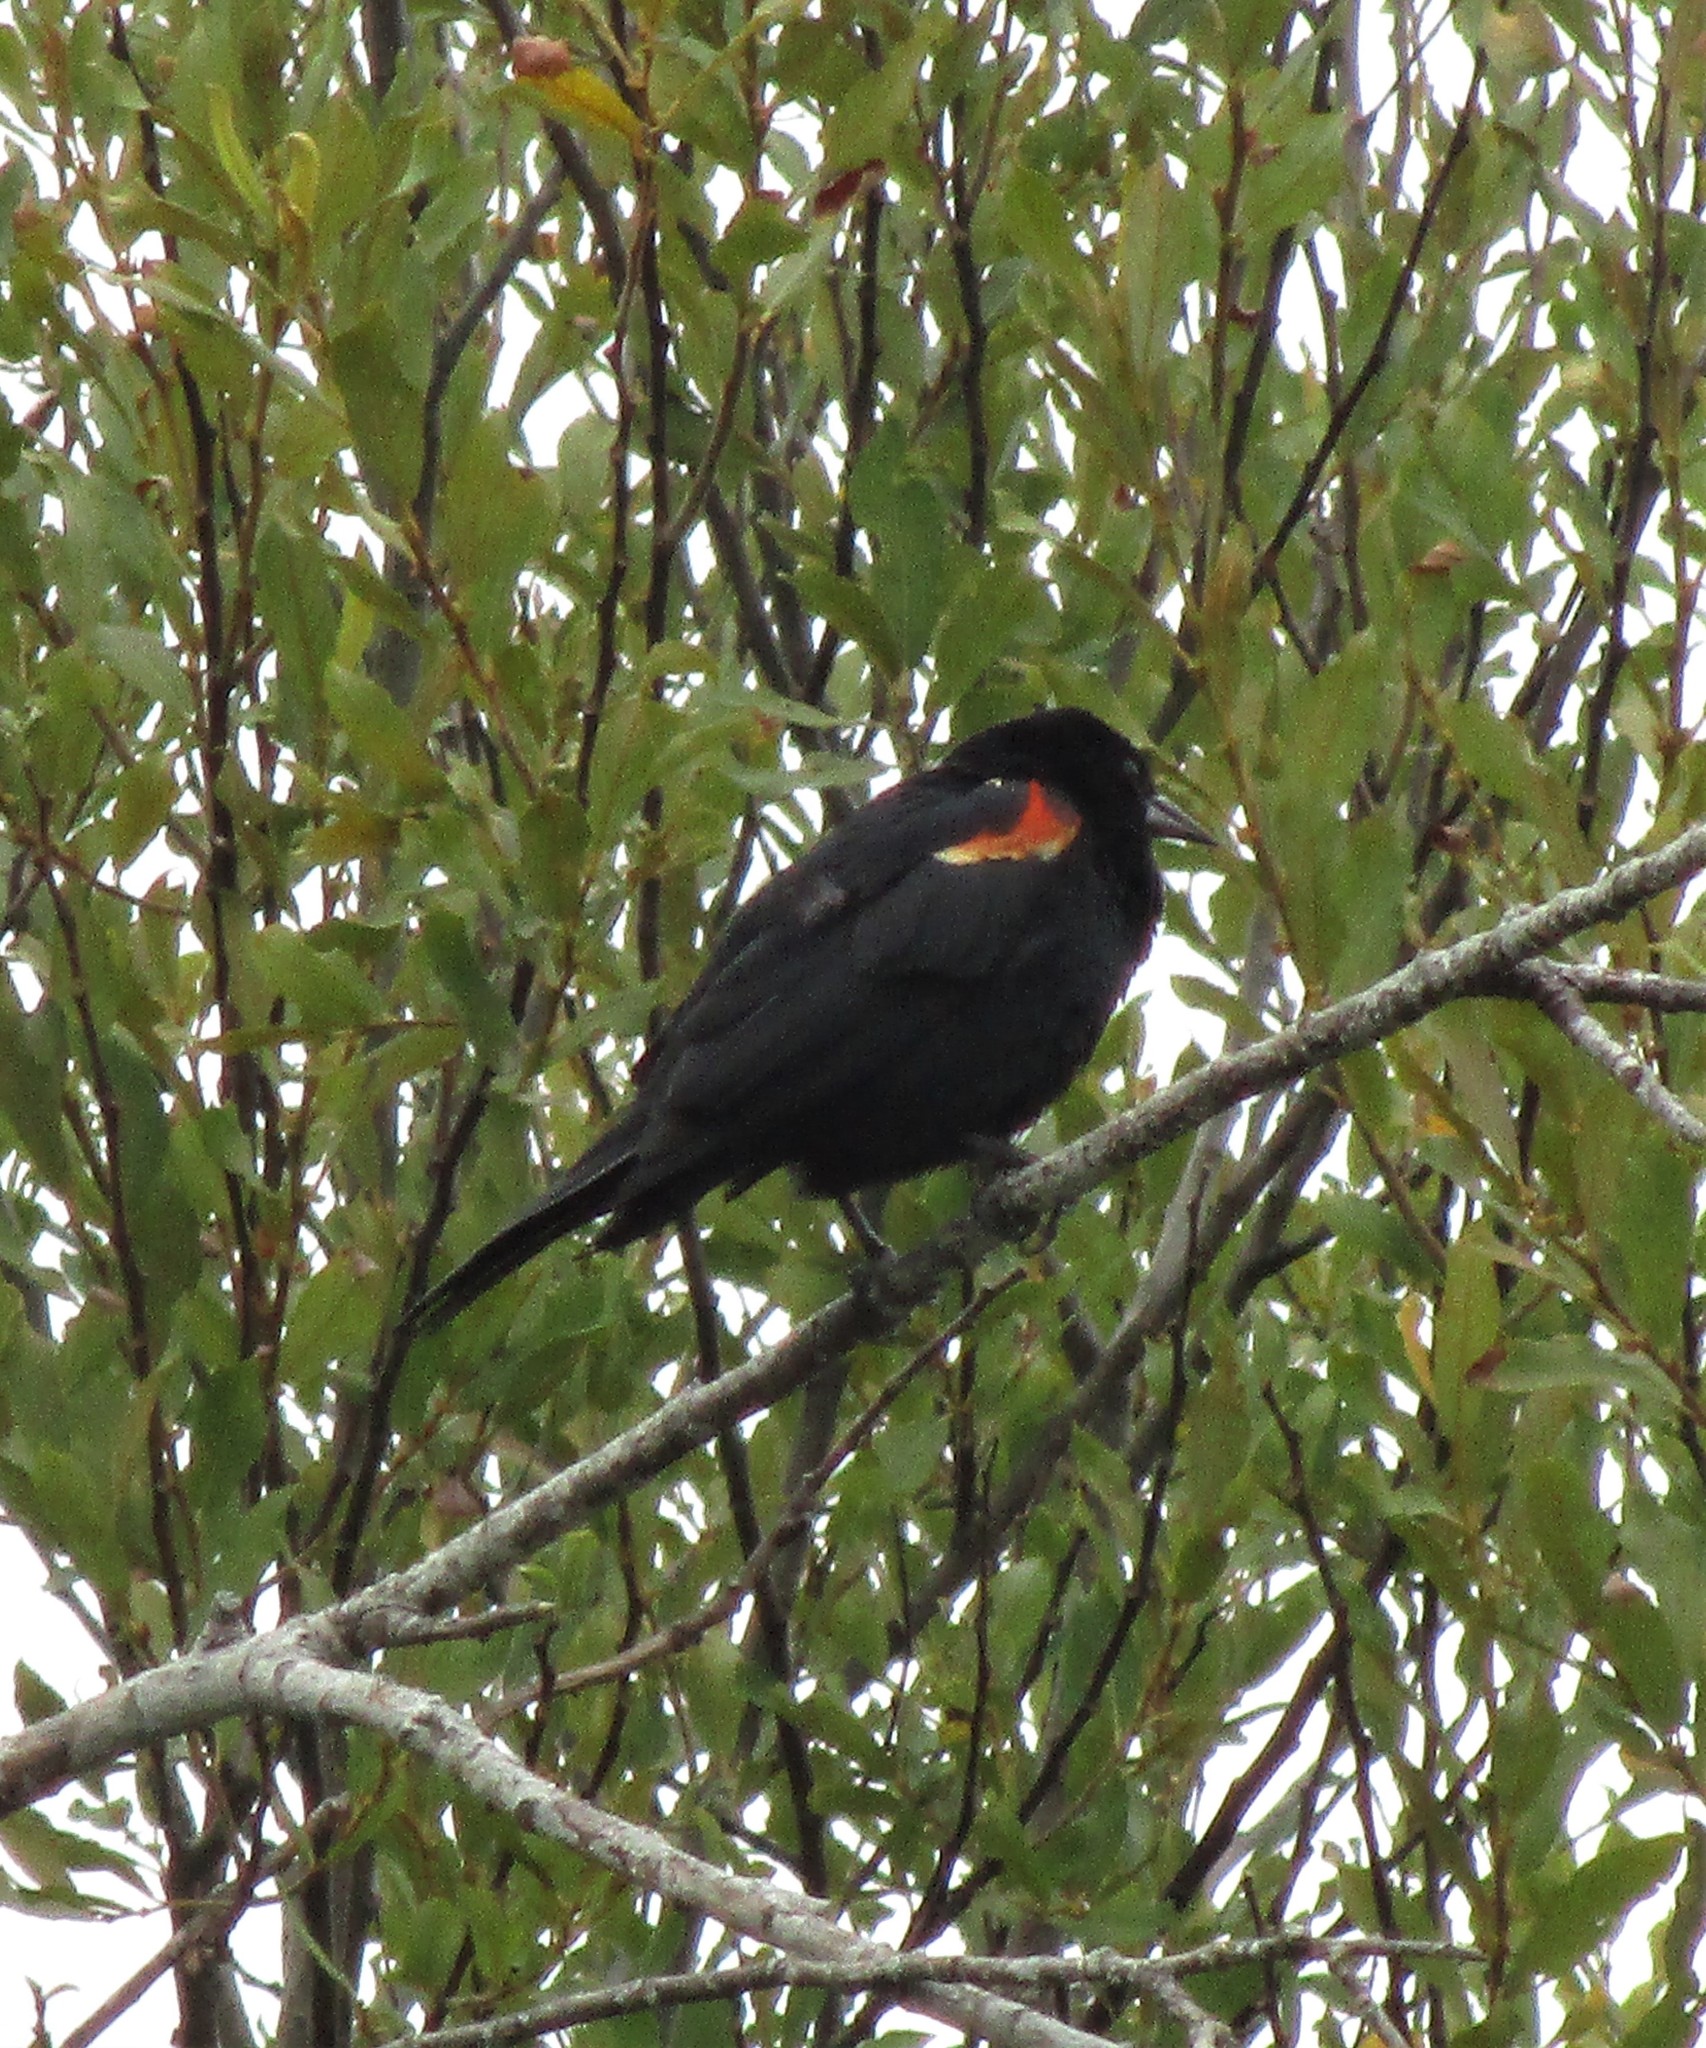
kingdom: Animalia
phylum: Chordata
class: Aves
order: Passeriformes
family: Icteridae
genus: Agelaius
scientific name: Agelaius phoeniceus
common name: Red-winged blackbird
